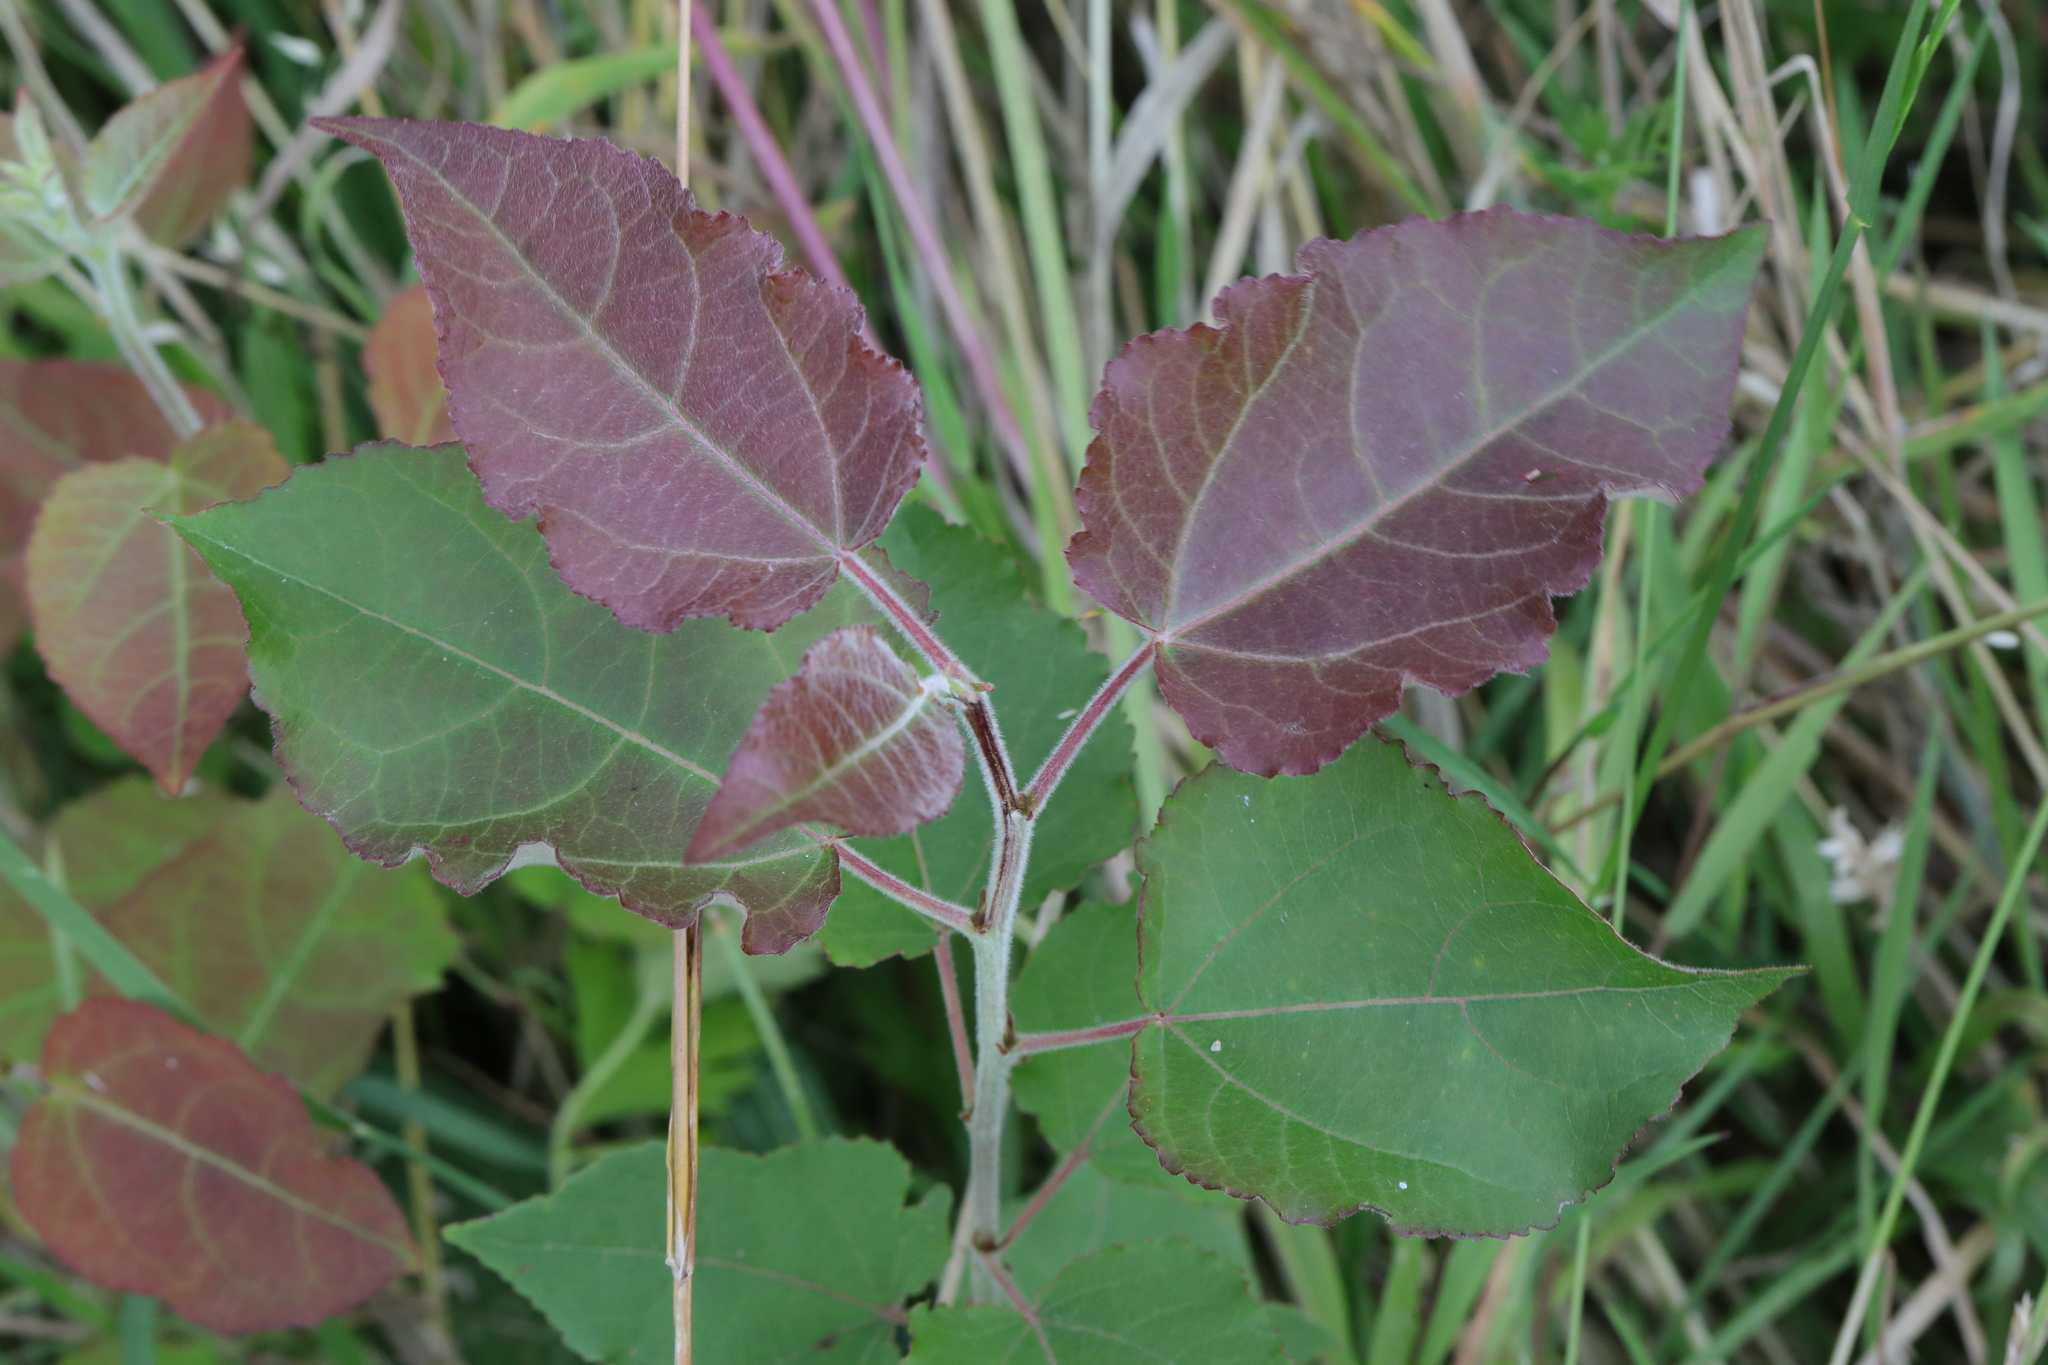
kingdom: Plantae
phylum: Tracheophyta
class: Magnoliopsida
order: Malpighiales
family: Salicaceae
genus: Populus
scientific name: Populus tremula
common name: European aspen
